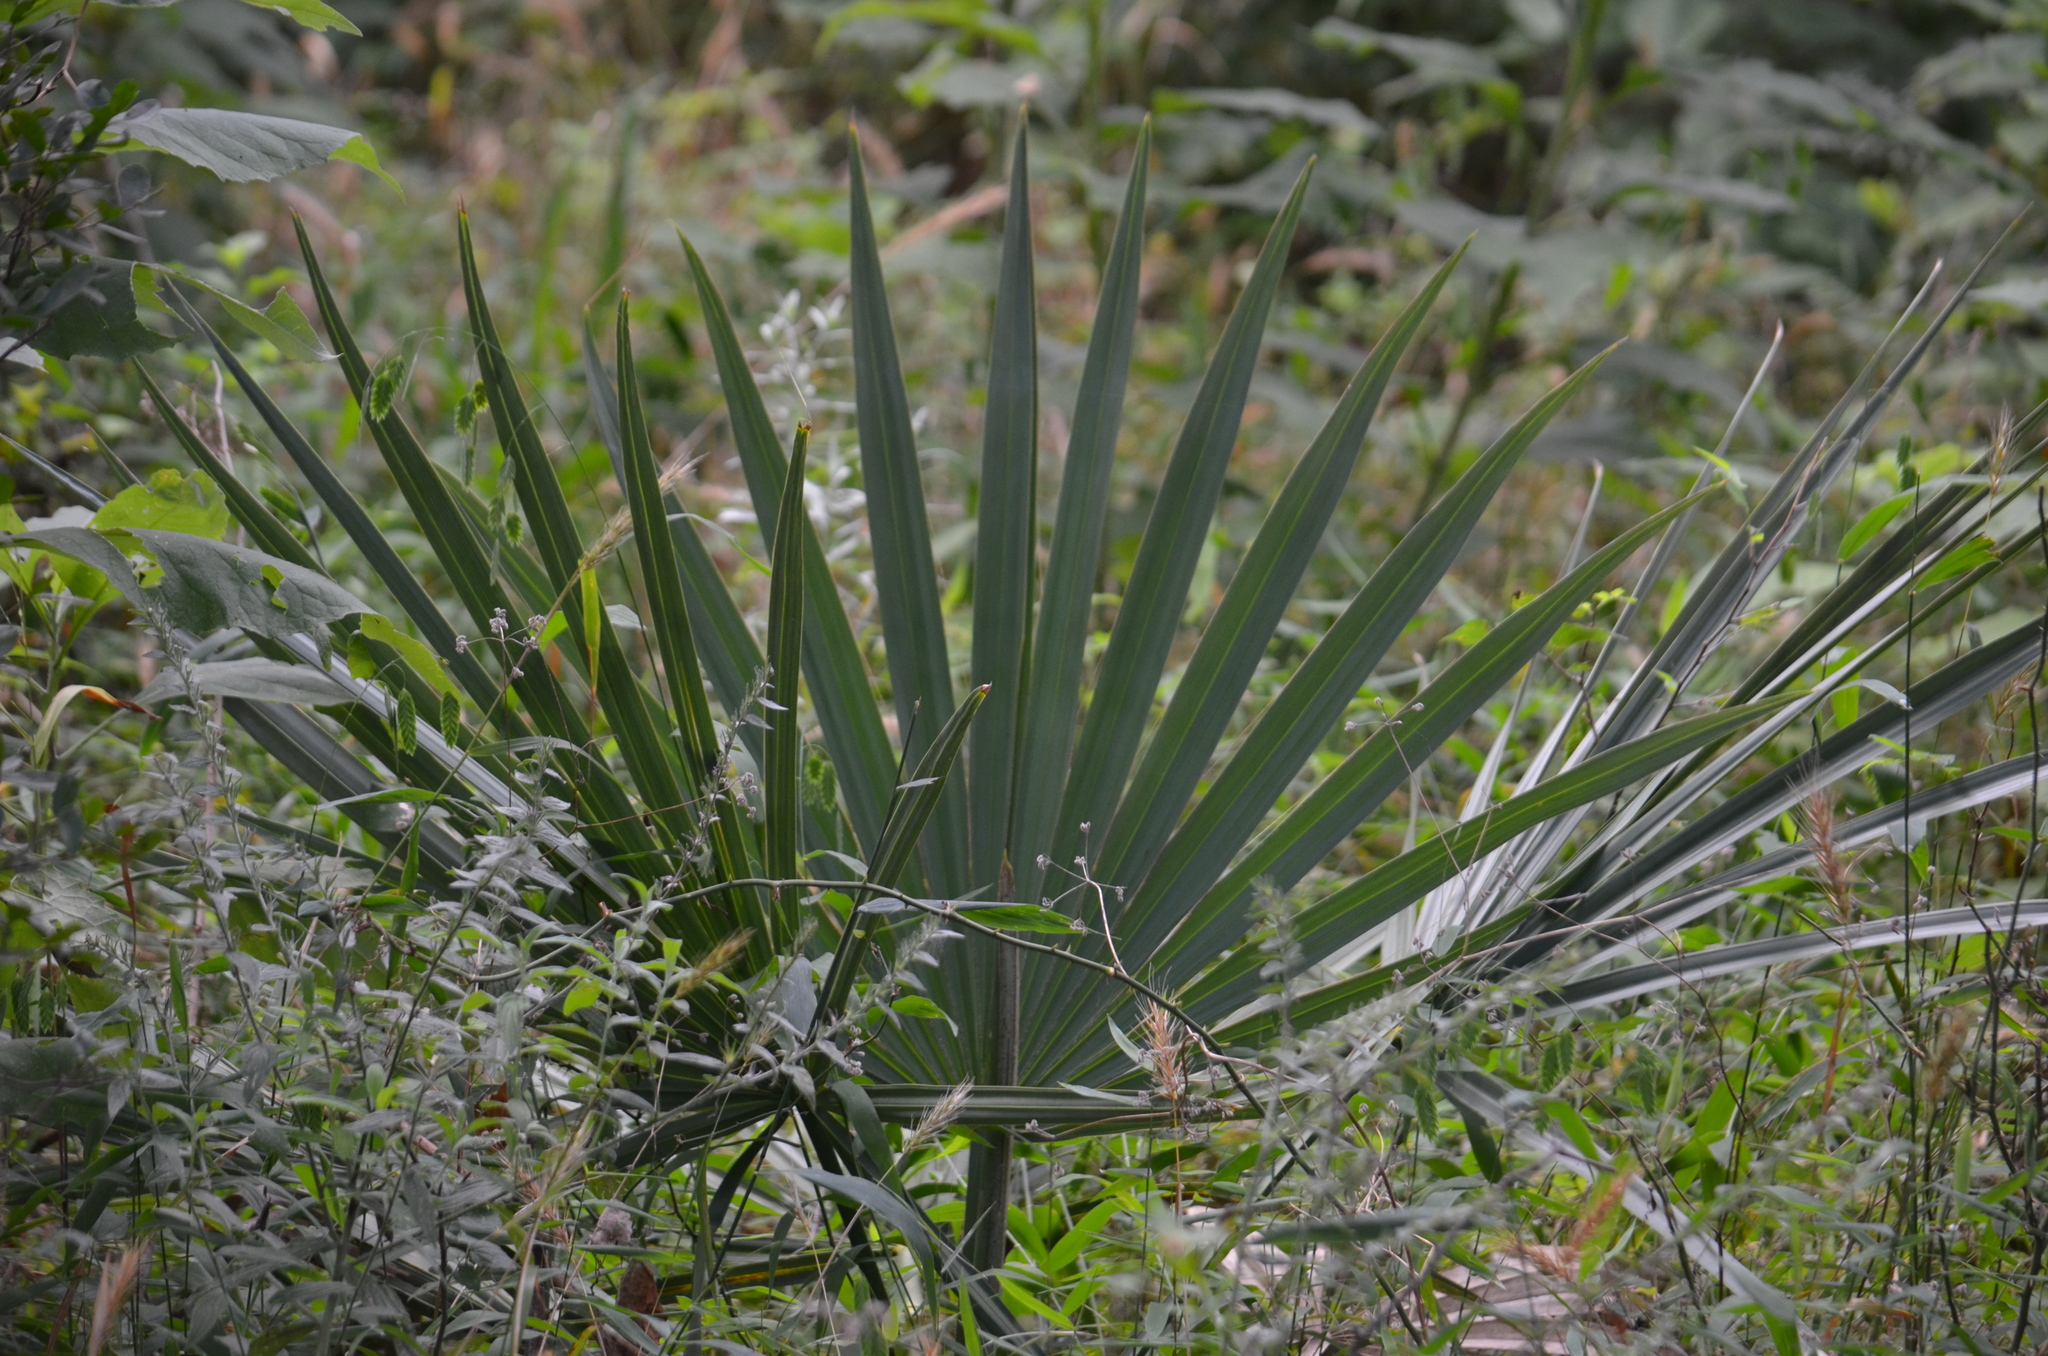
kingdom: Plantae
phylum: Tracheophyta
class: Liliopsida
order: Arecales
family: Arecaceae
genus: Sabal
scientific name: Sabal minor
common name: Dwarf palmetto
